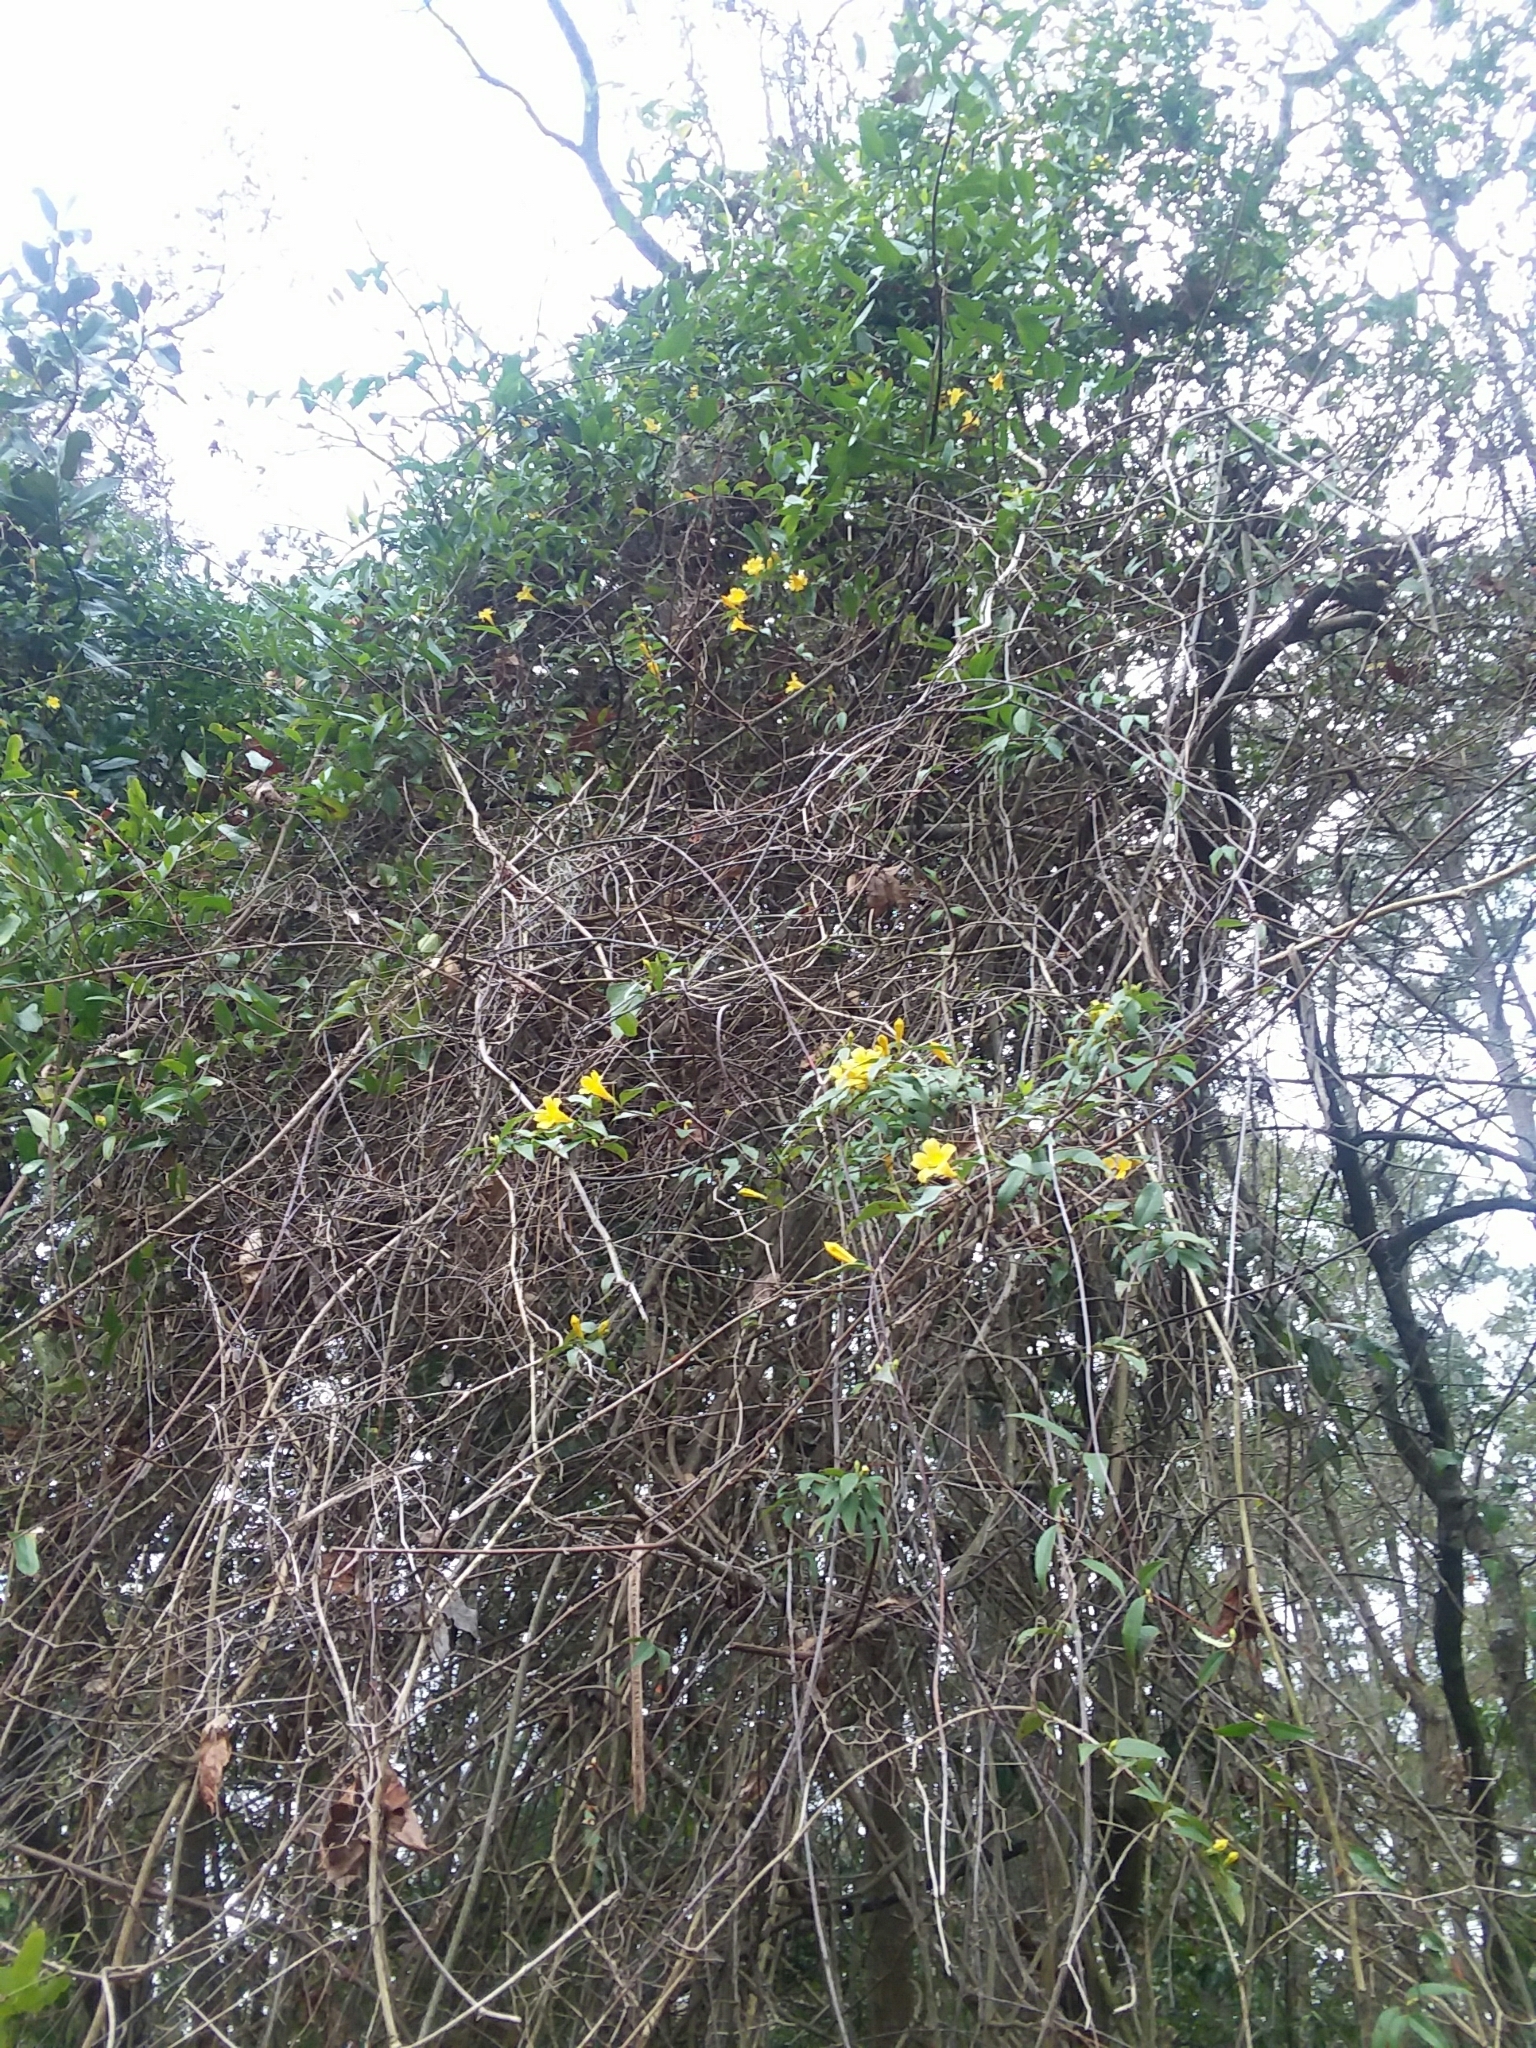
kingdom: Plantae
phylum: Tracheophyta
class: Magnoliopsida
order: Gentianales
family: Gelsemiaceae
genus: Gelsemium
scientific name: Gelsemium sempervirens
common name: Carolina-jasmine
